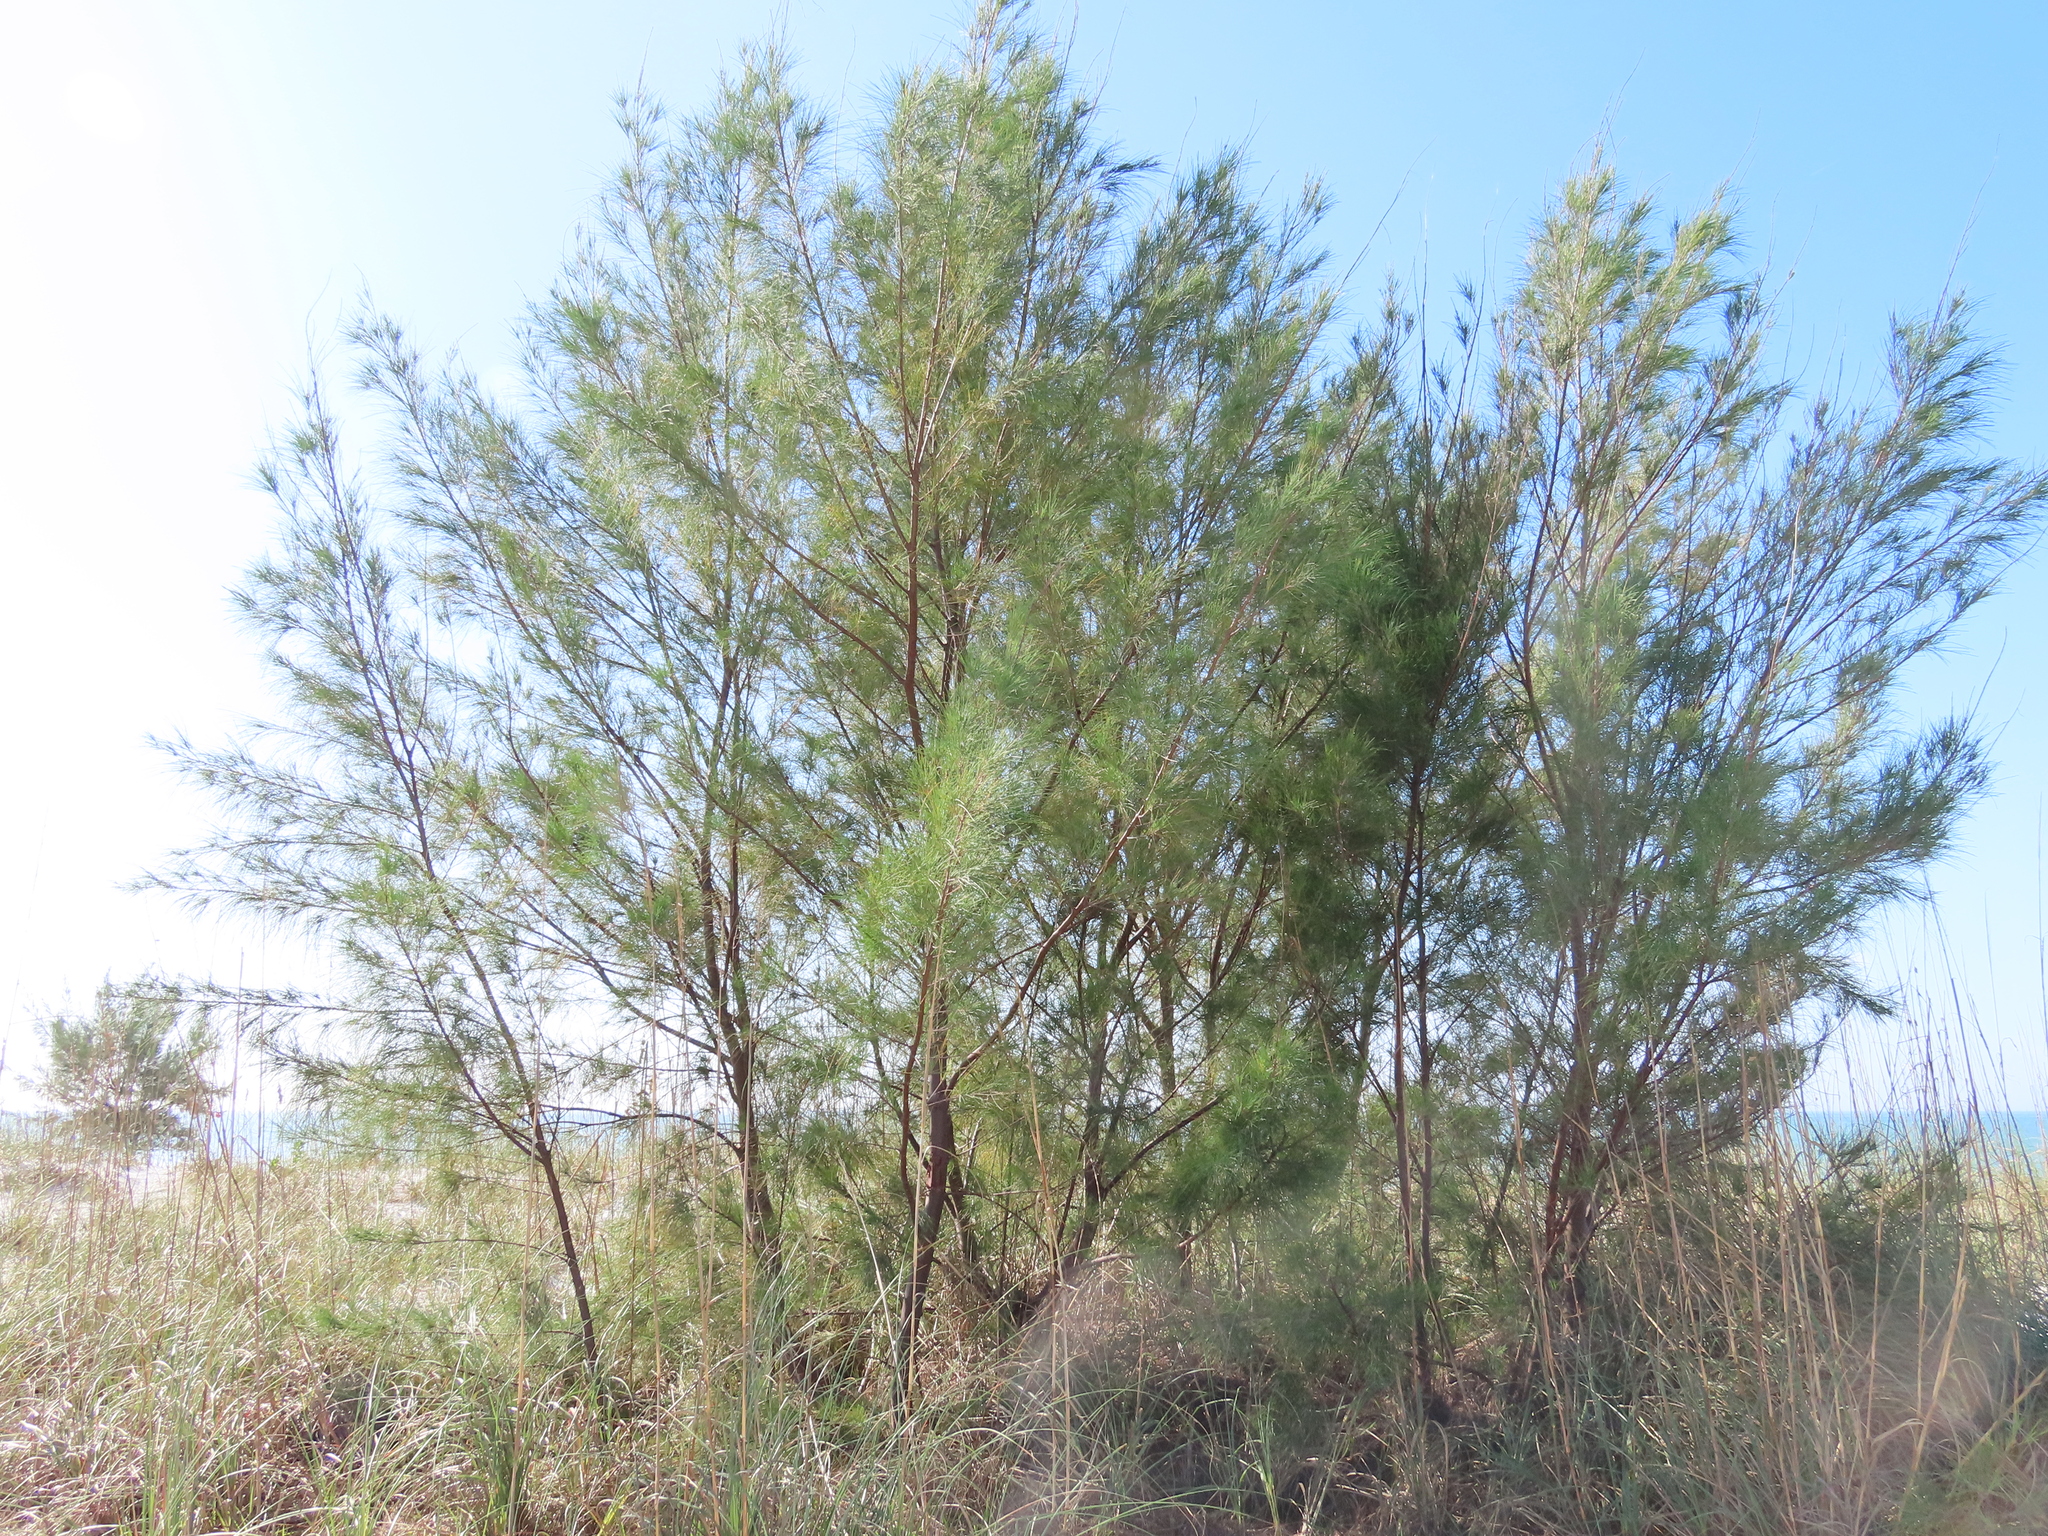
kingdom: Plantae
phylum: Tracheophyta
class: Magnoliopsida
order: Fagales
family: Casuarinaceae
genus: Casuarina
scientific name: Casuarina equisetifolia
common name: Beach sheoak
